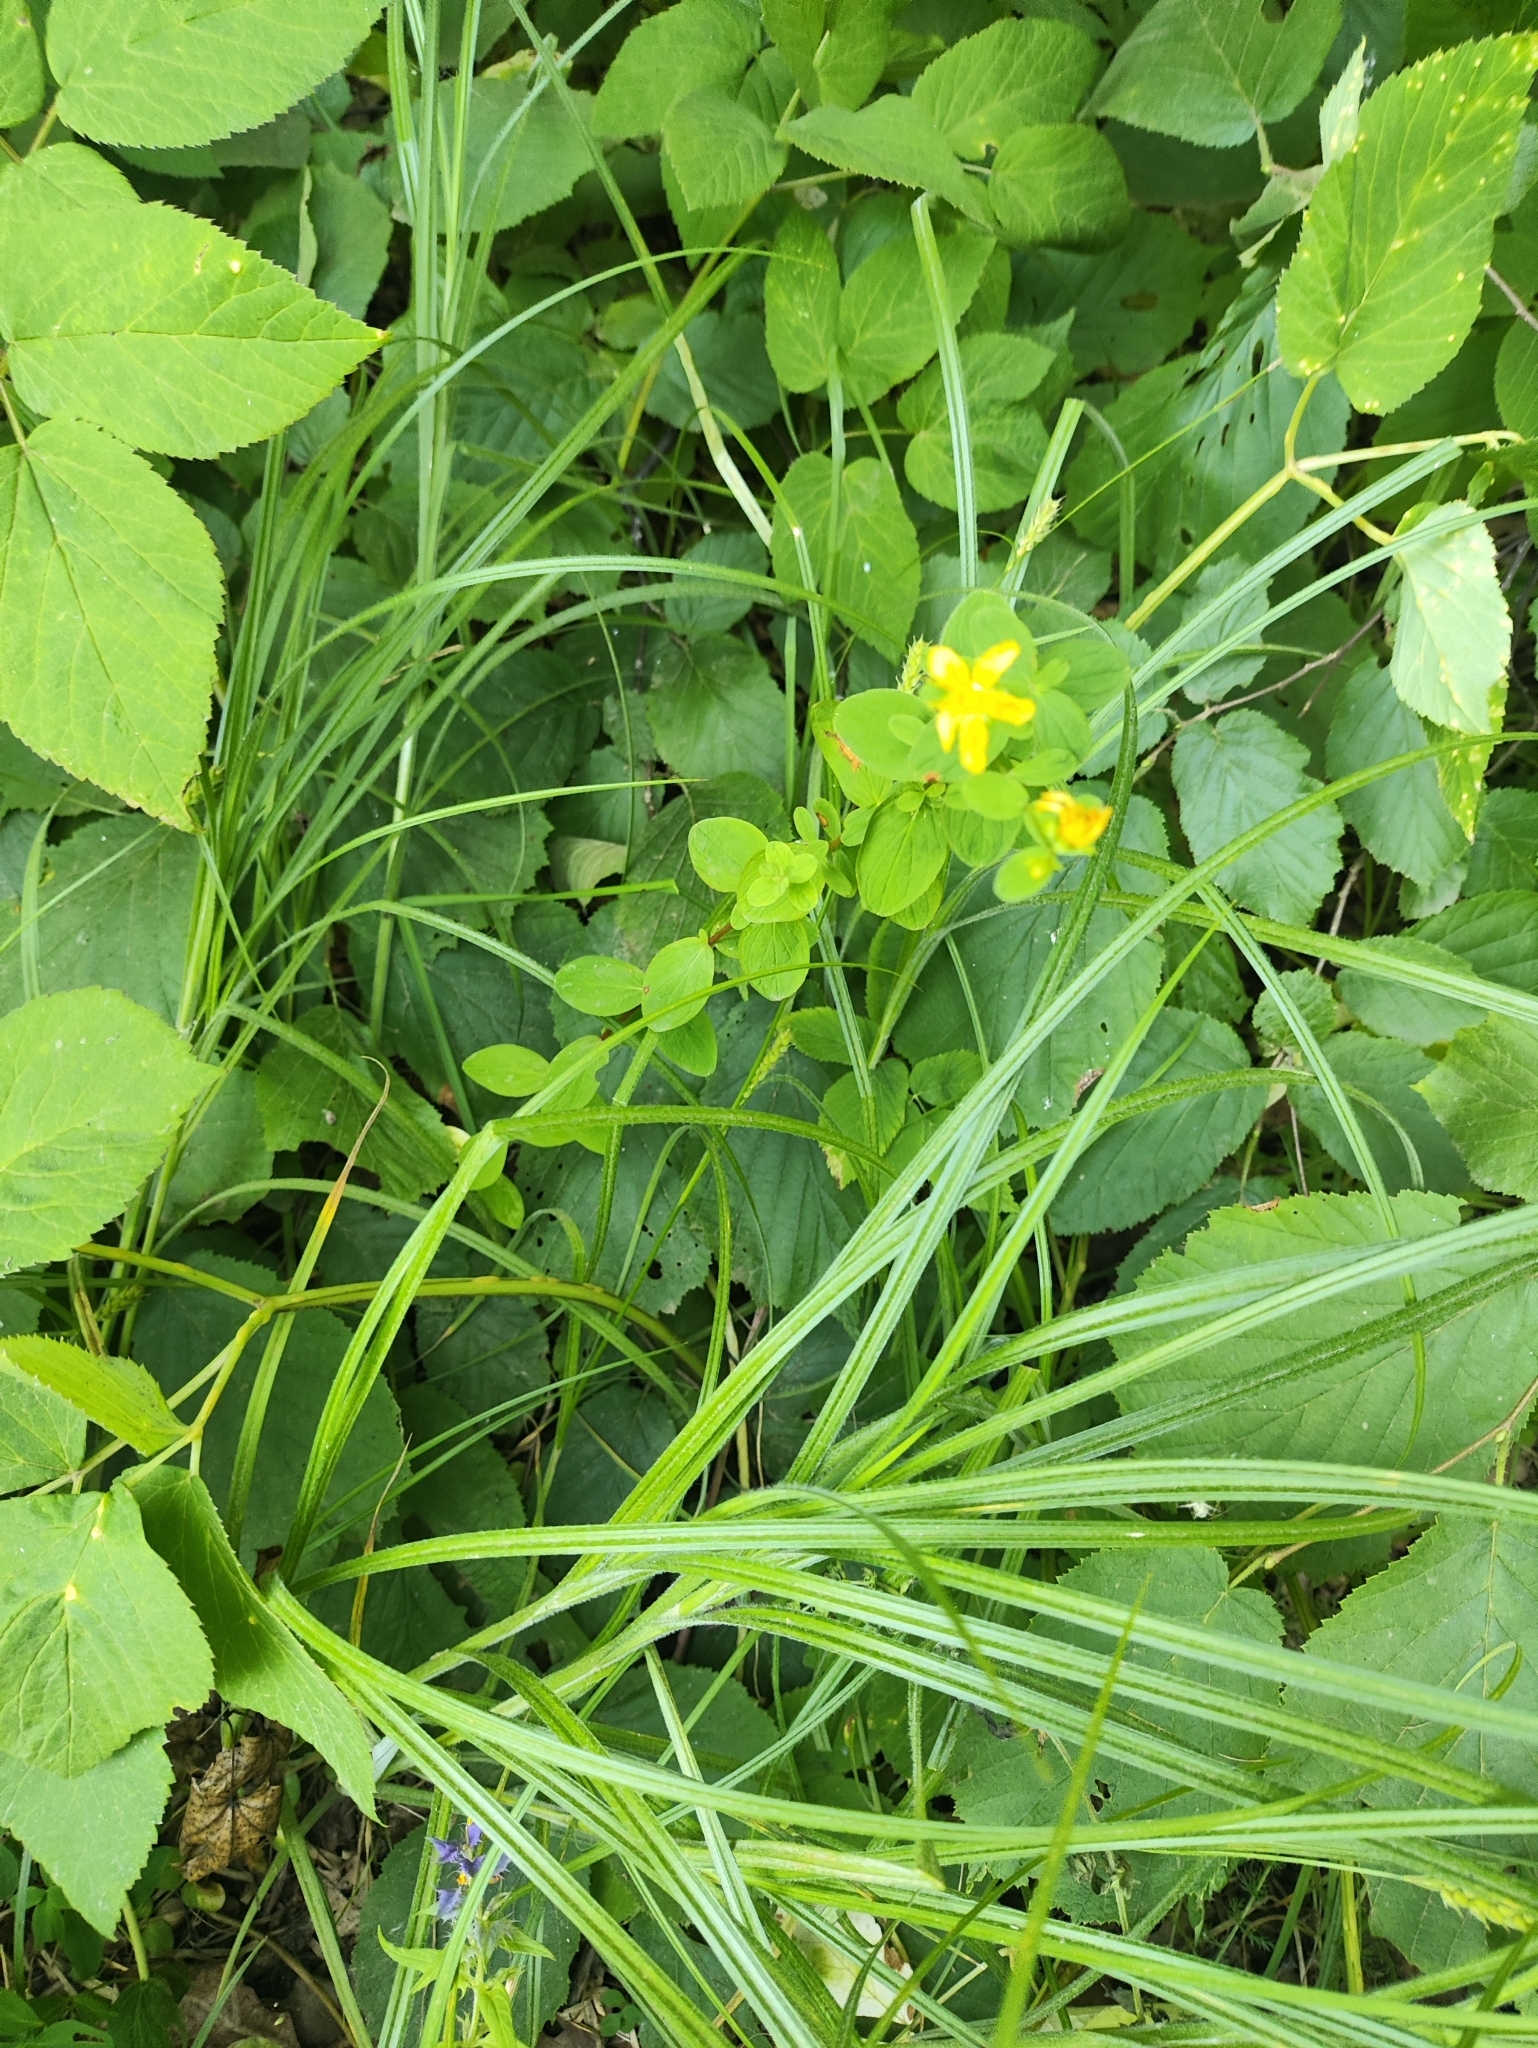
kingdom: Plantae
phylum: Tracheophyta
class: Magnoliopsida
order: Malpighiales
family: Hypericaceae
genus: Hypericum
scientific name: Hypericum maculatum
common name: Imperforate st. john's-wort
